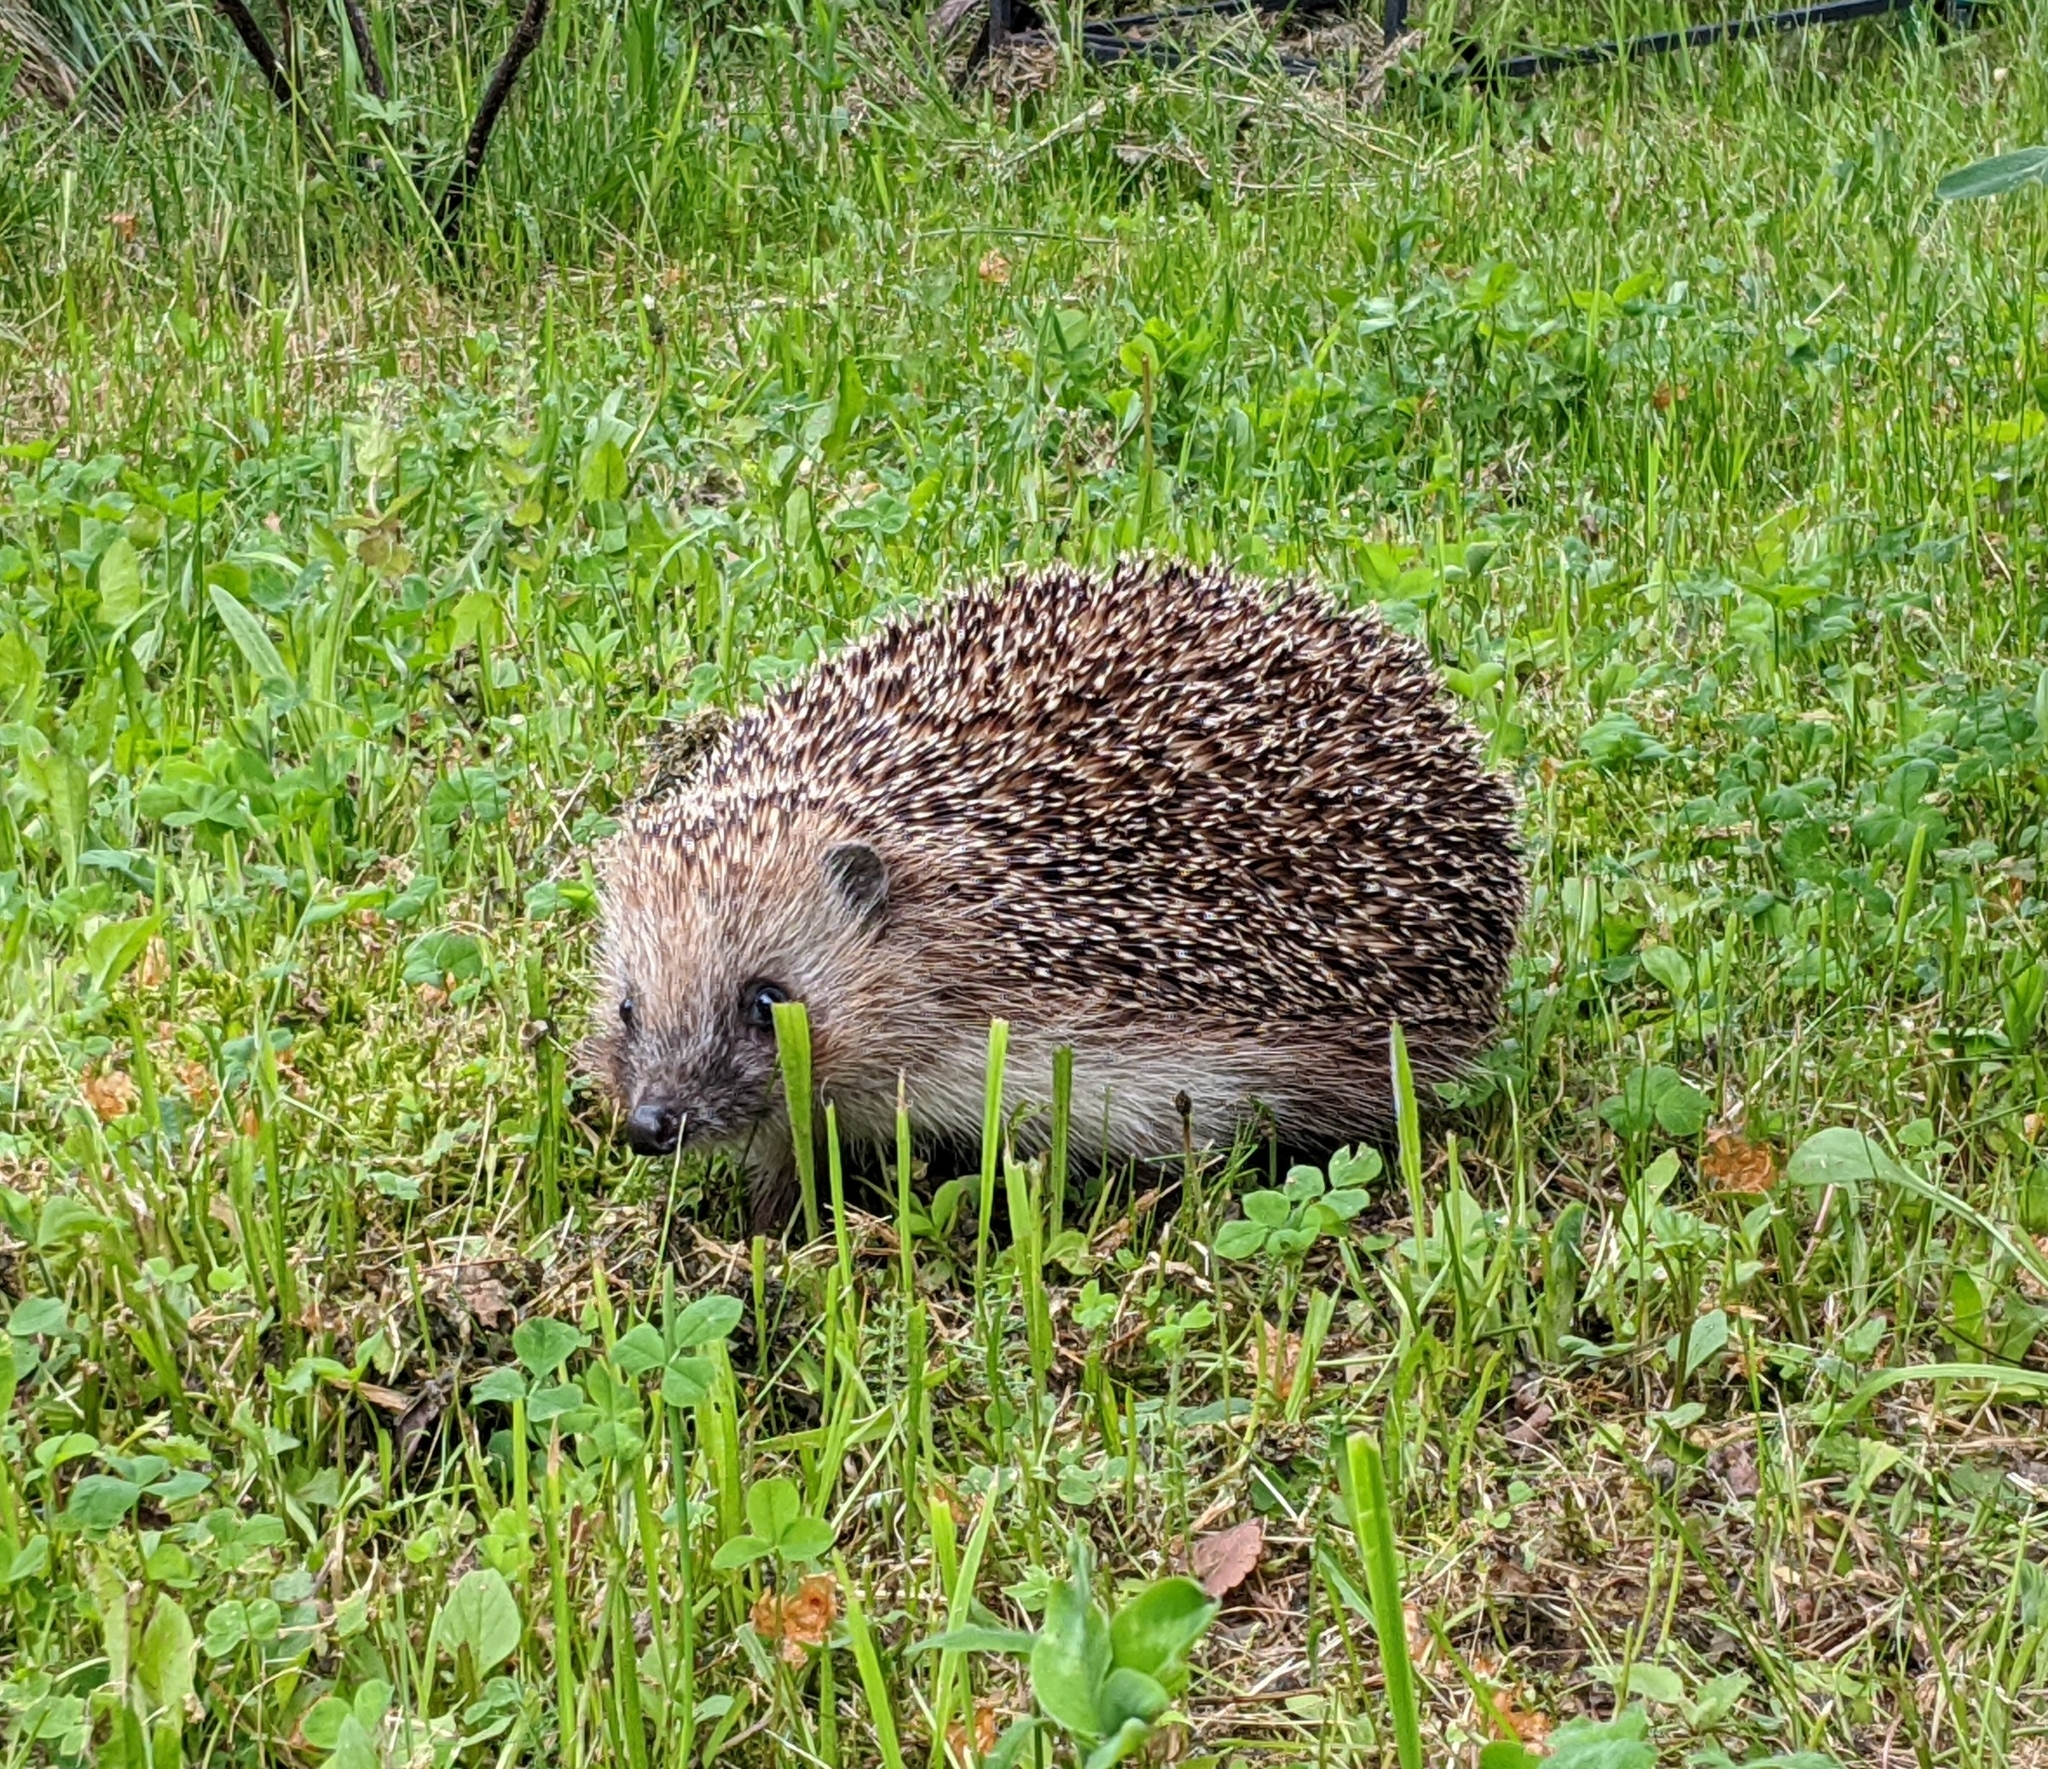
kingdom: Animalia
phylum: Chordata
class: Mammalia
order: Erinaceomorpha
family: Erinaceidae
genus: Erinaceus
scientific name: Erinaceus europaeus
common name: West european hedgehog
